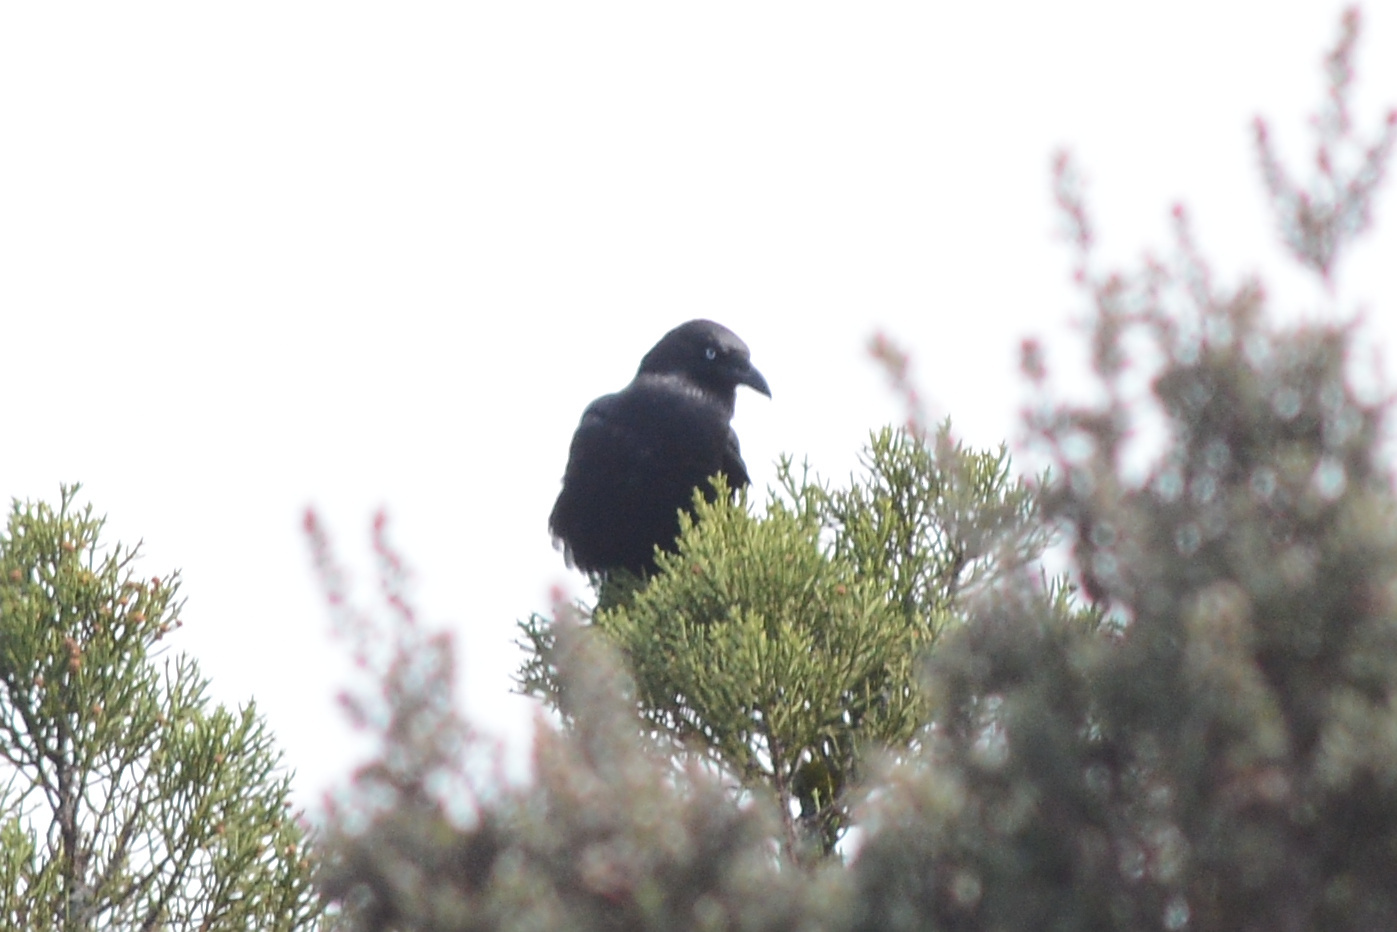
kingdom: Animalia
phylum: Chordata
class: Aves
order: Passeriformes
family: Corvidae
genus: Corvus
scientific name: Corvus tasmanicus
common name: Forest raven
